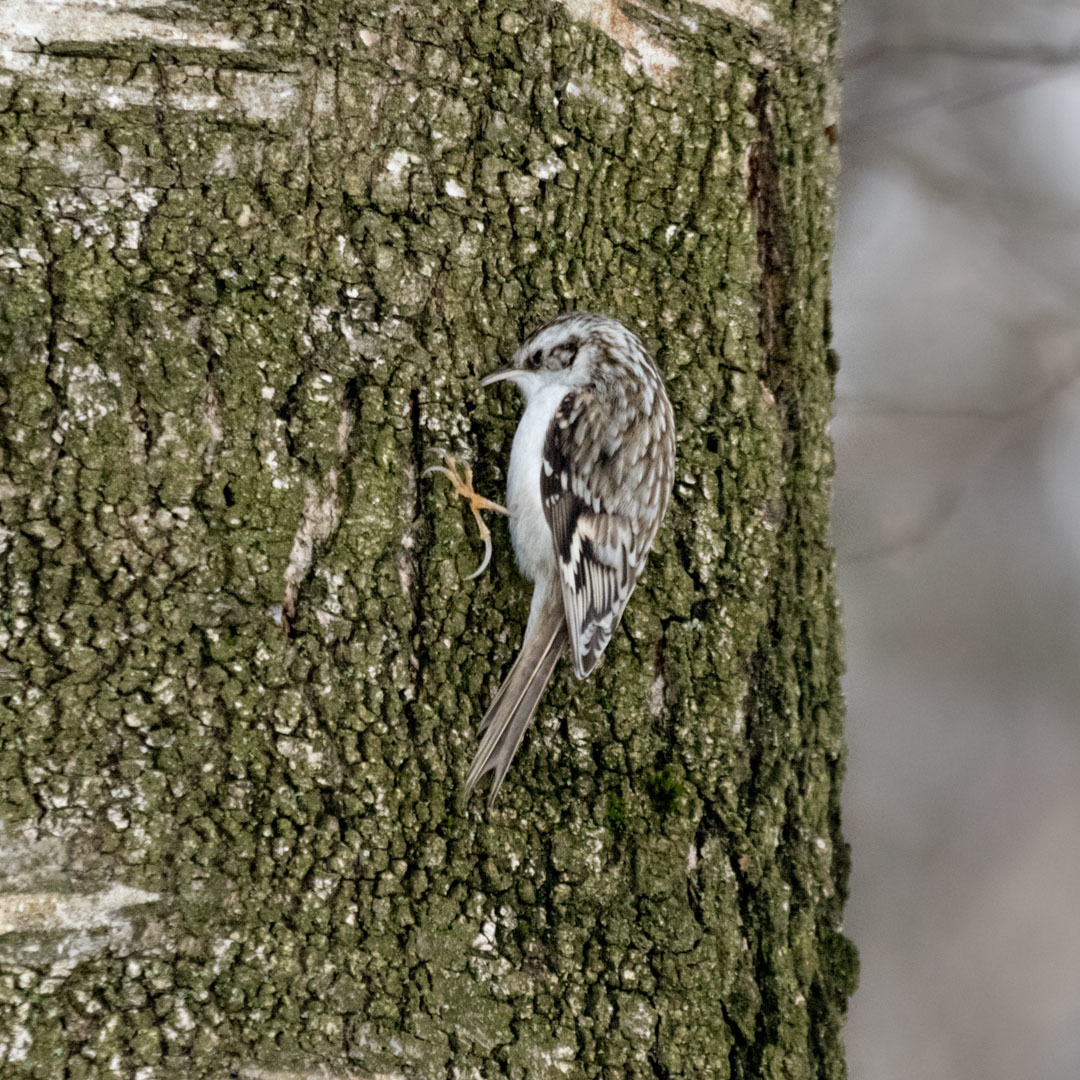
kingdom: Animalia
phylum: Chordata
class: Aves
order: Passeriformes
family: Certhiidae
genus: Certhia
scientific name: Certhia familiaris
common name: Eurasian treecreeper
